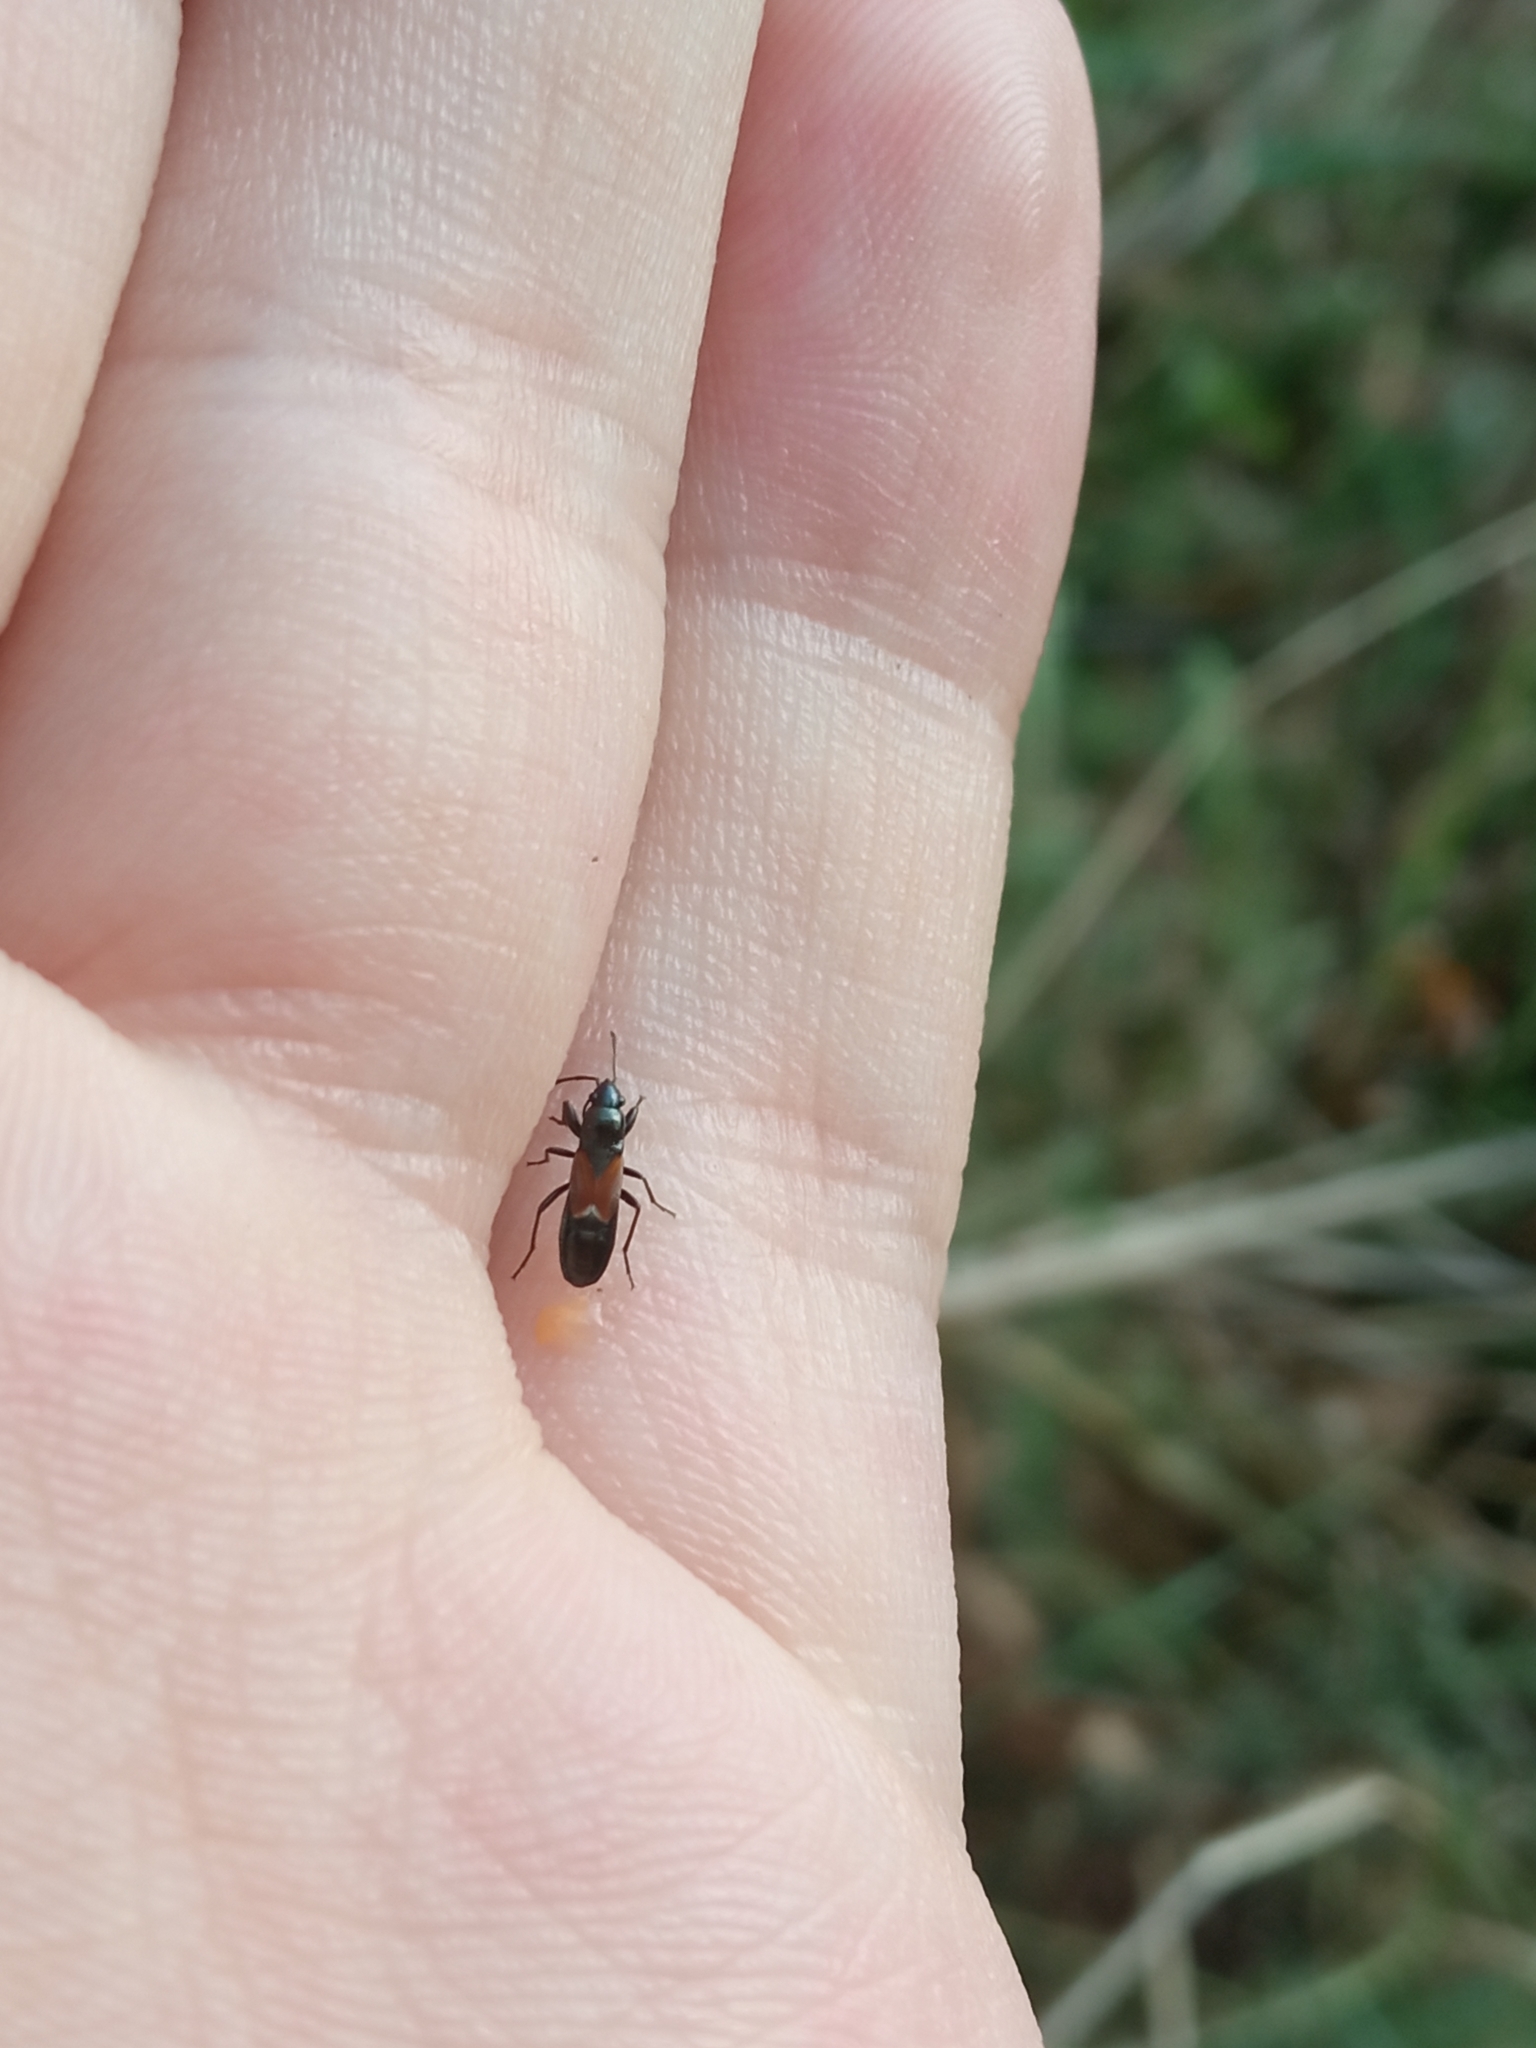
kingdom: Animalia
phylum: Arthropoda
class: Insecta
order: Hemiptera
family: Rhyparochromidae
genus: Pterotmetus
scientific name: Pterotmetus staphyliniformis
